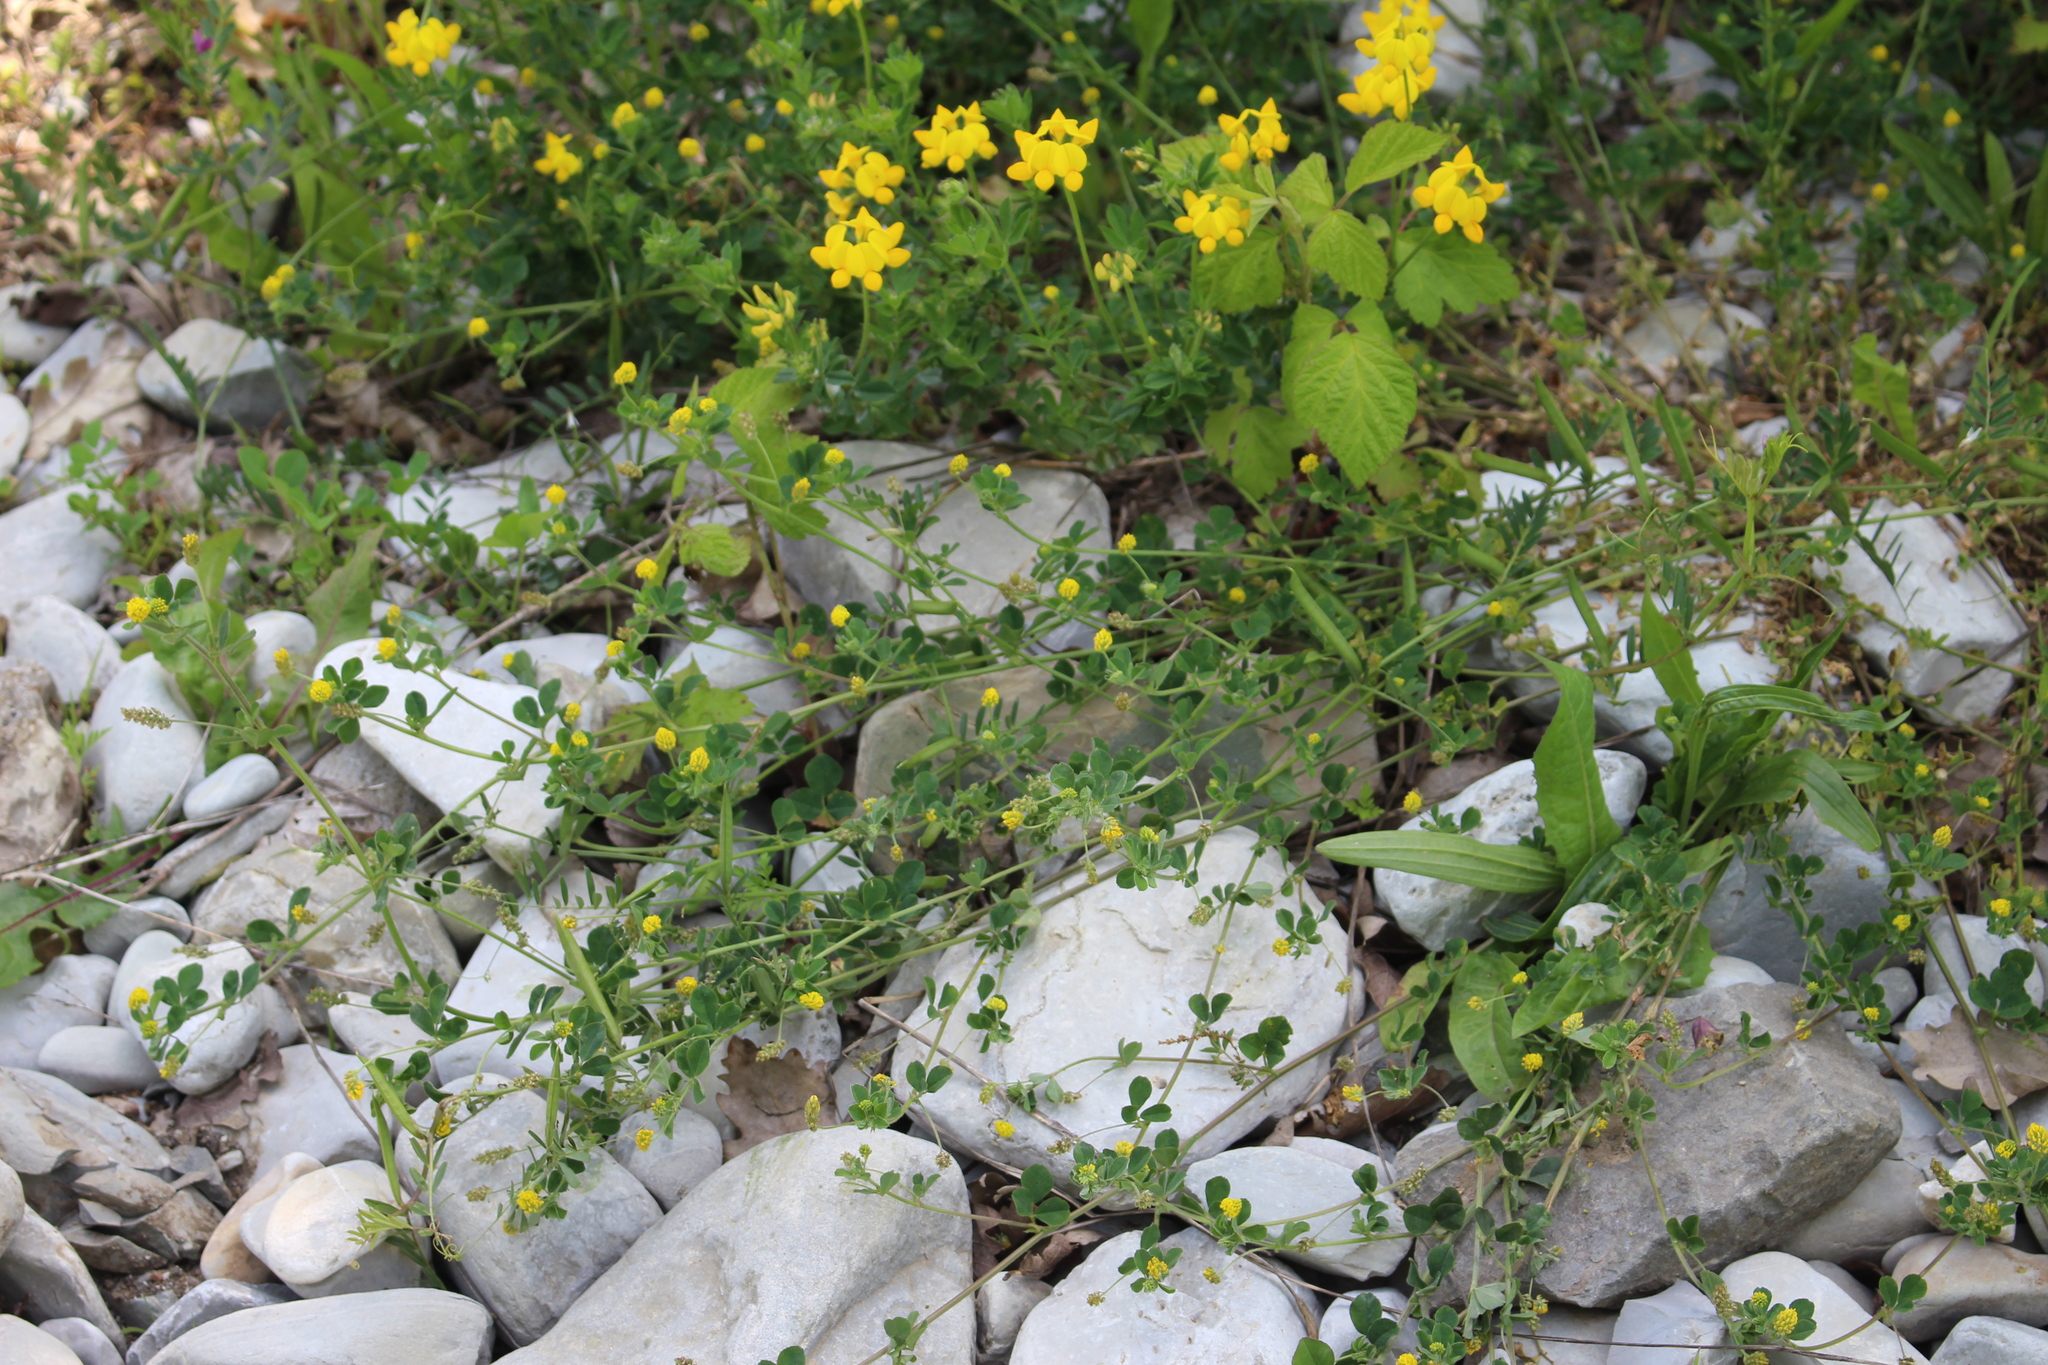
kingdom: Plantae
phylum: Tracheophyta
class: Magnoliopsida
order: Fabales
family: Fabaceae
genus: Medicago
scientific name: Medicago lupulina
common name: Black medick
